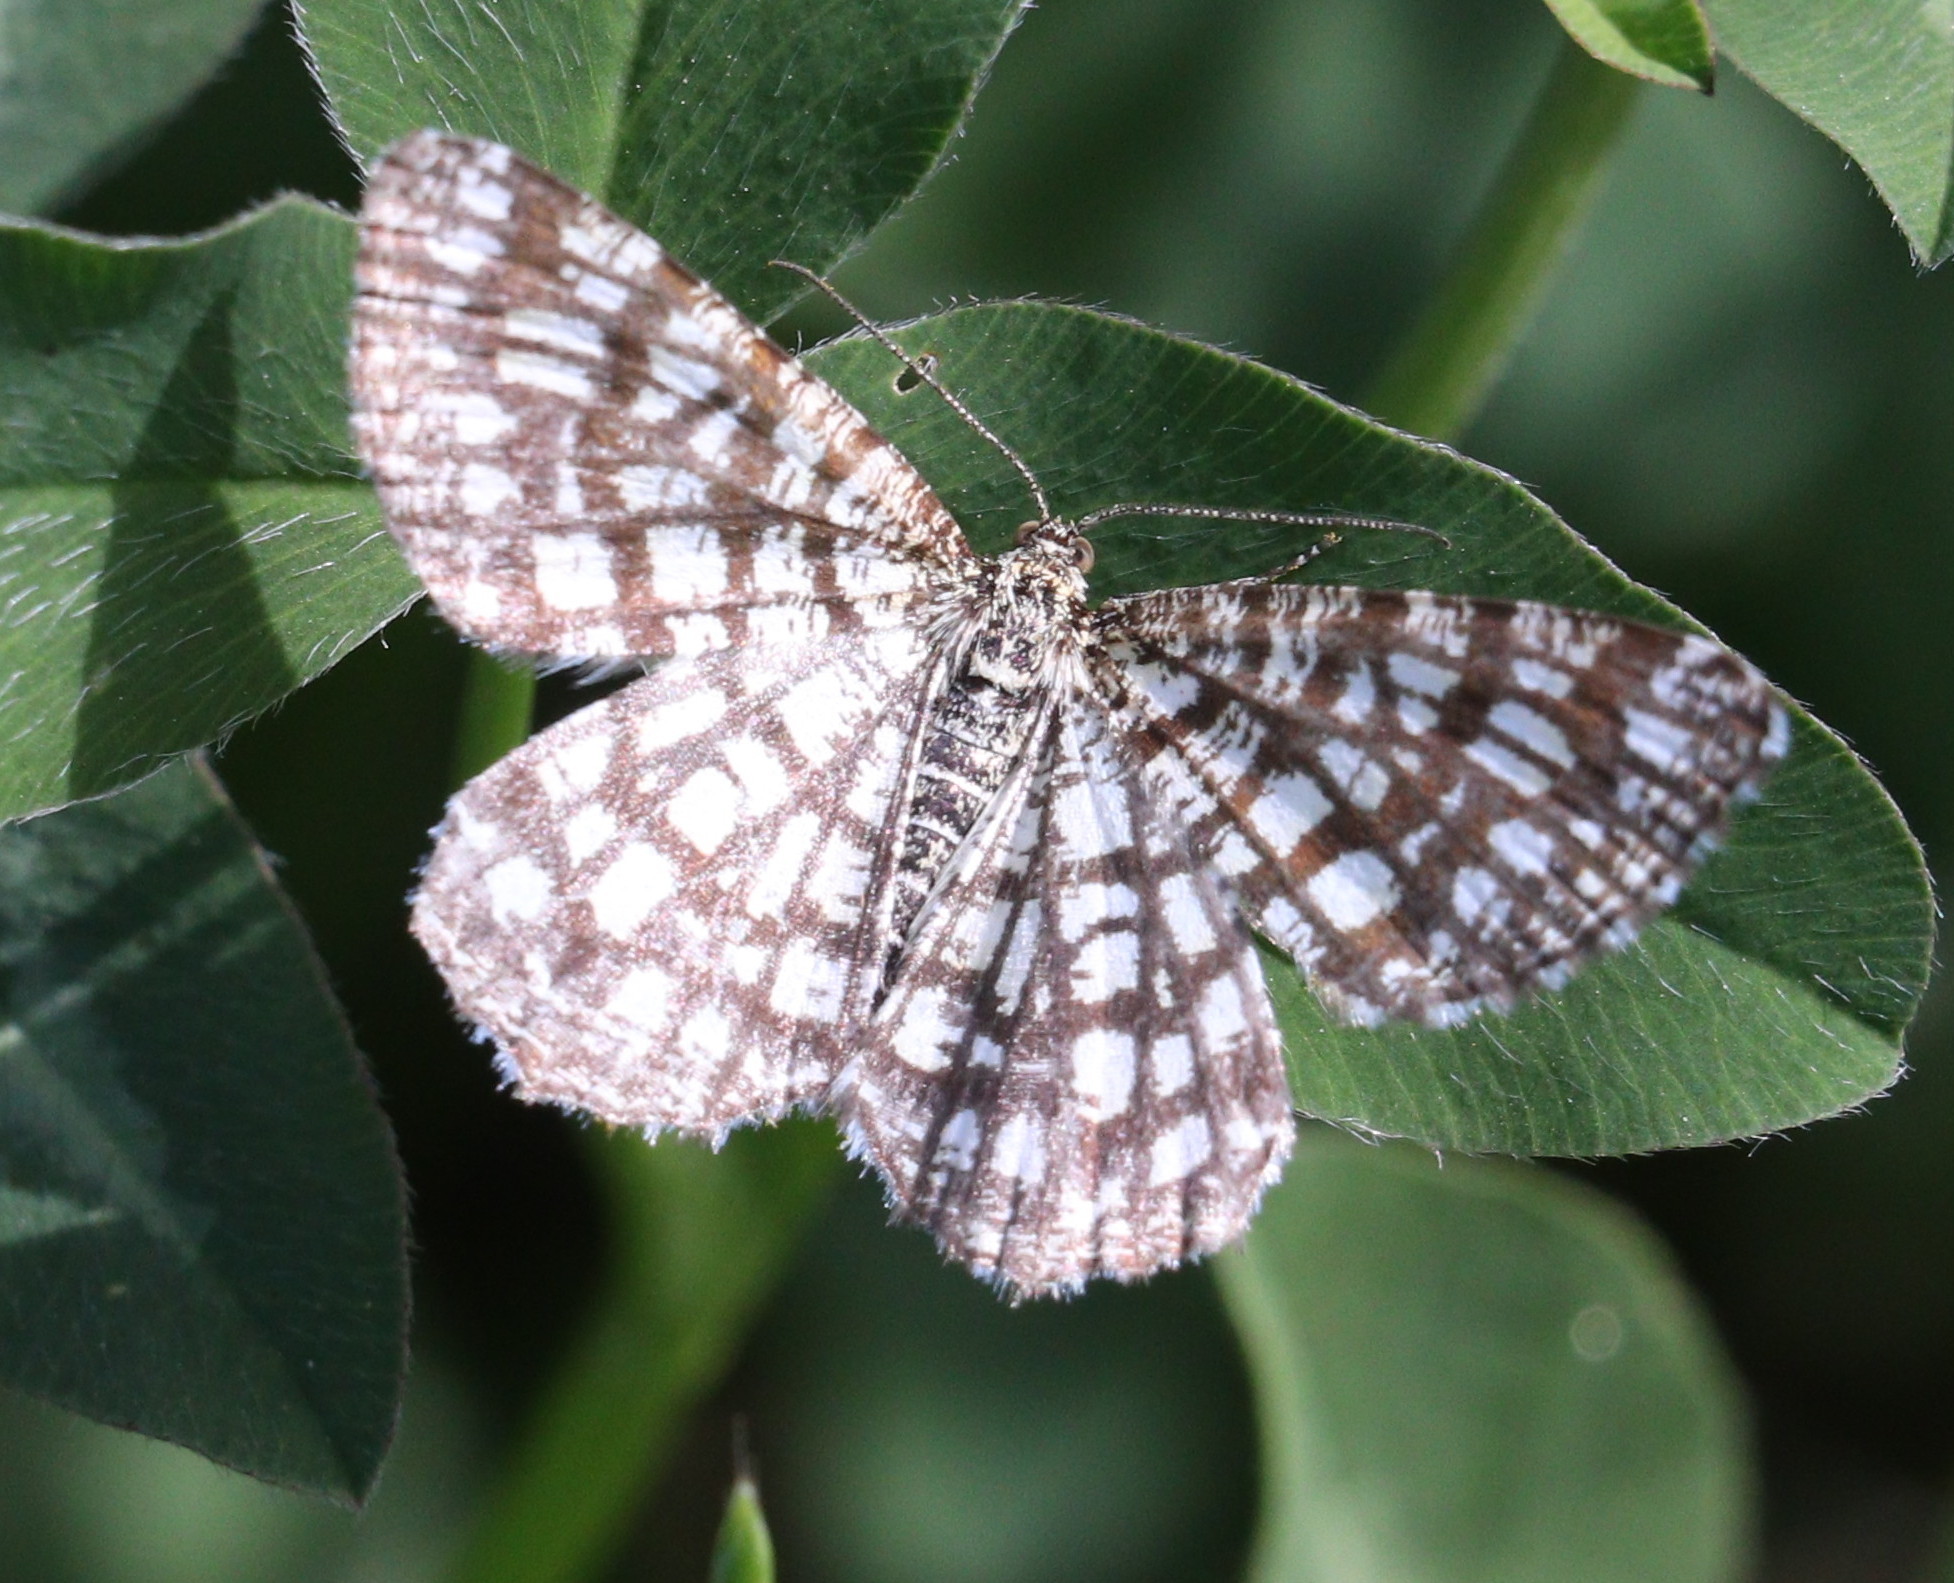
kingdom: Animalia
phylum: Arthropoda
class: Insecta
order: Lepidoptera
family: Geometridae
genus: Chiasmia
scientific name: Chiasmia clathrata
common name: Latticed heath
